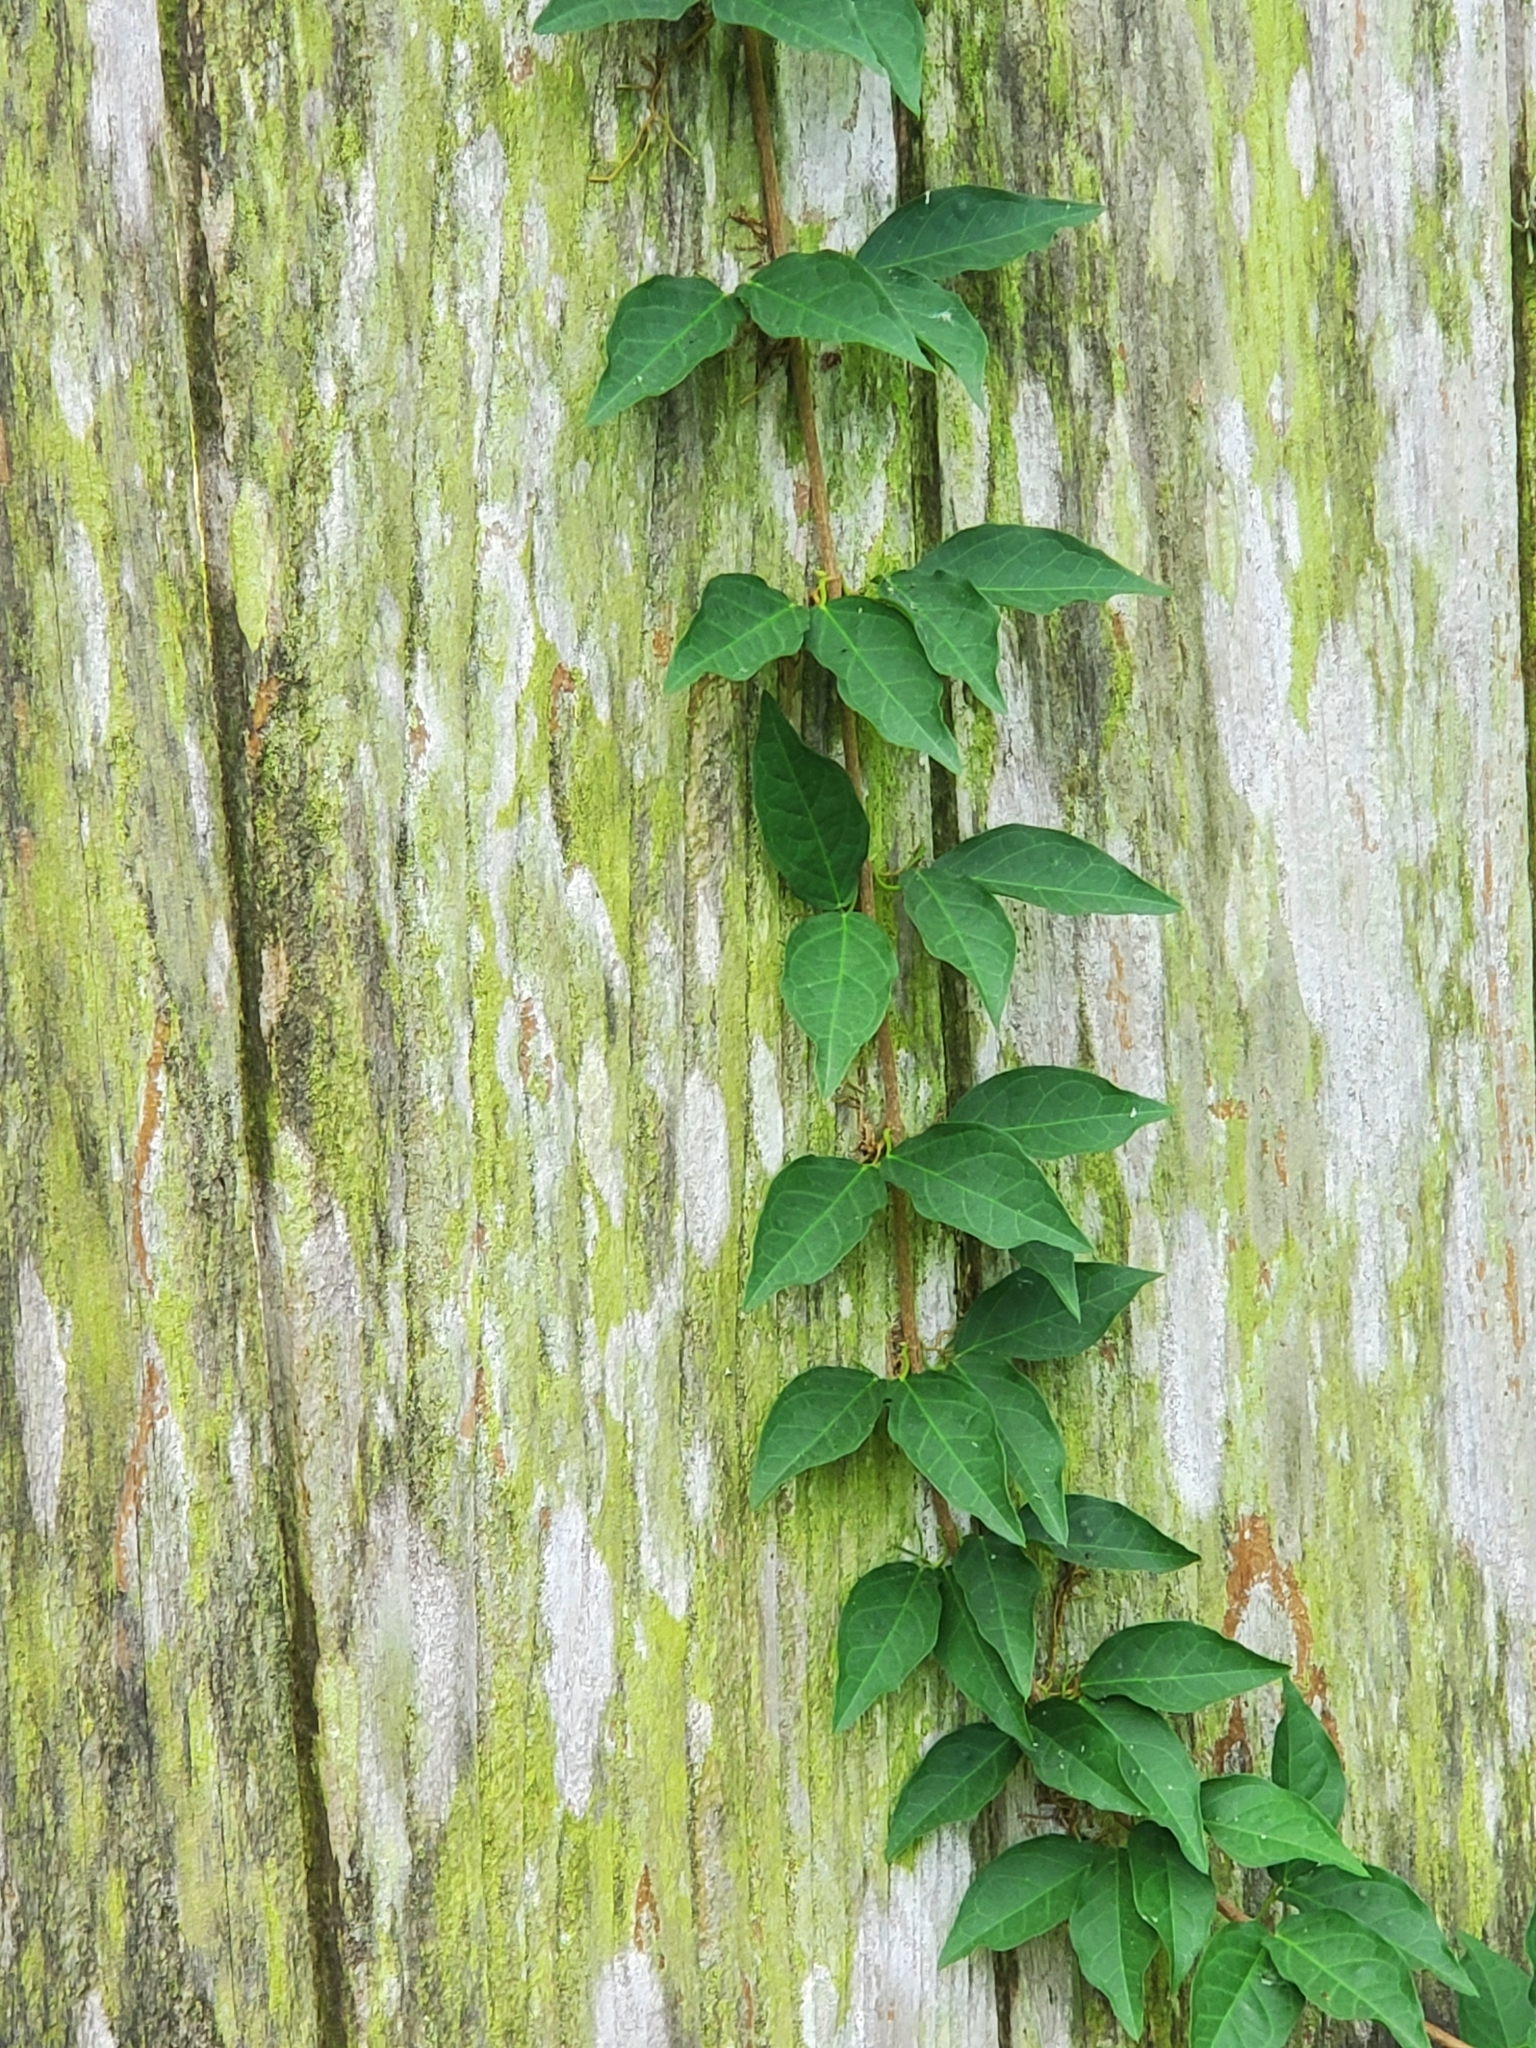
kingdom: Plantae
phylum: Tracheophyta
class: Magnoliopsida
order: Lamiales
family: Bignoniaceae
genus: Dolichandra
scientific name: Dolichandra unguis-cati
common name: Catclaw vine
